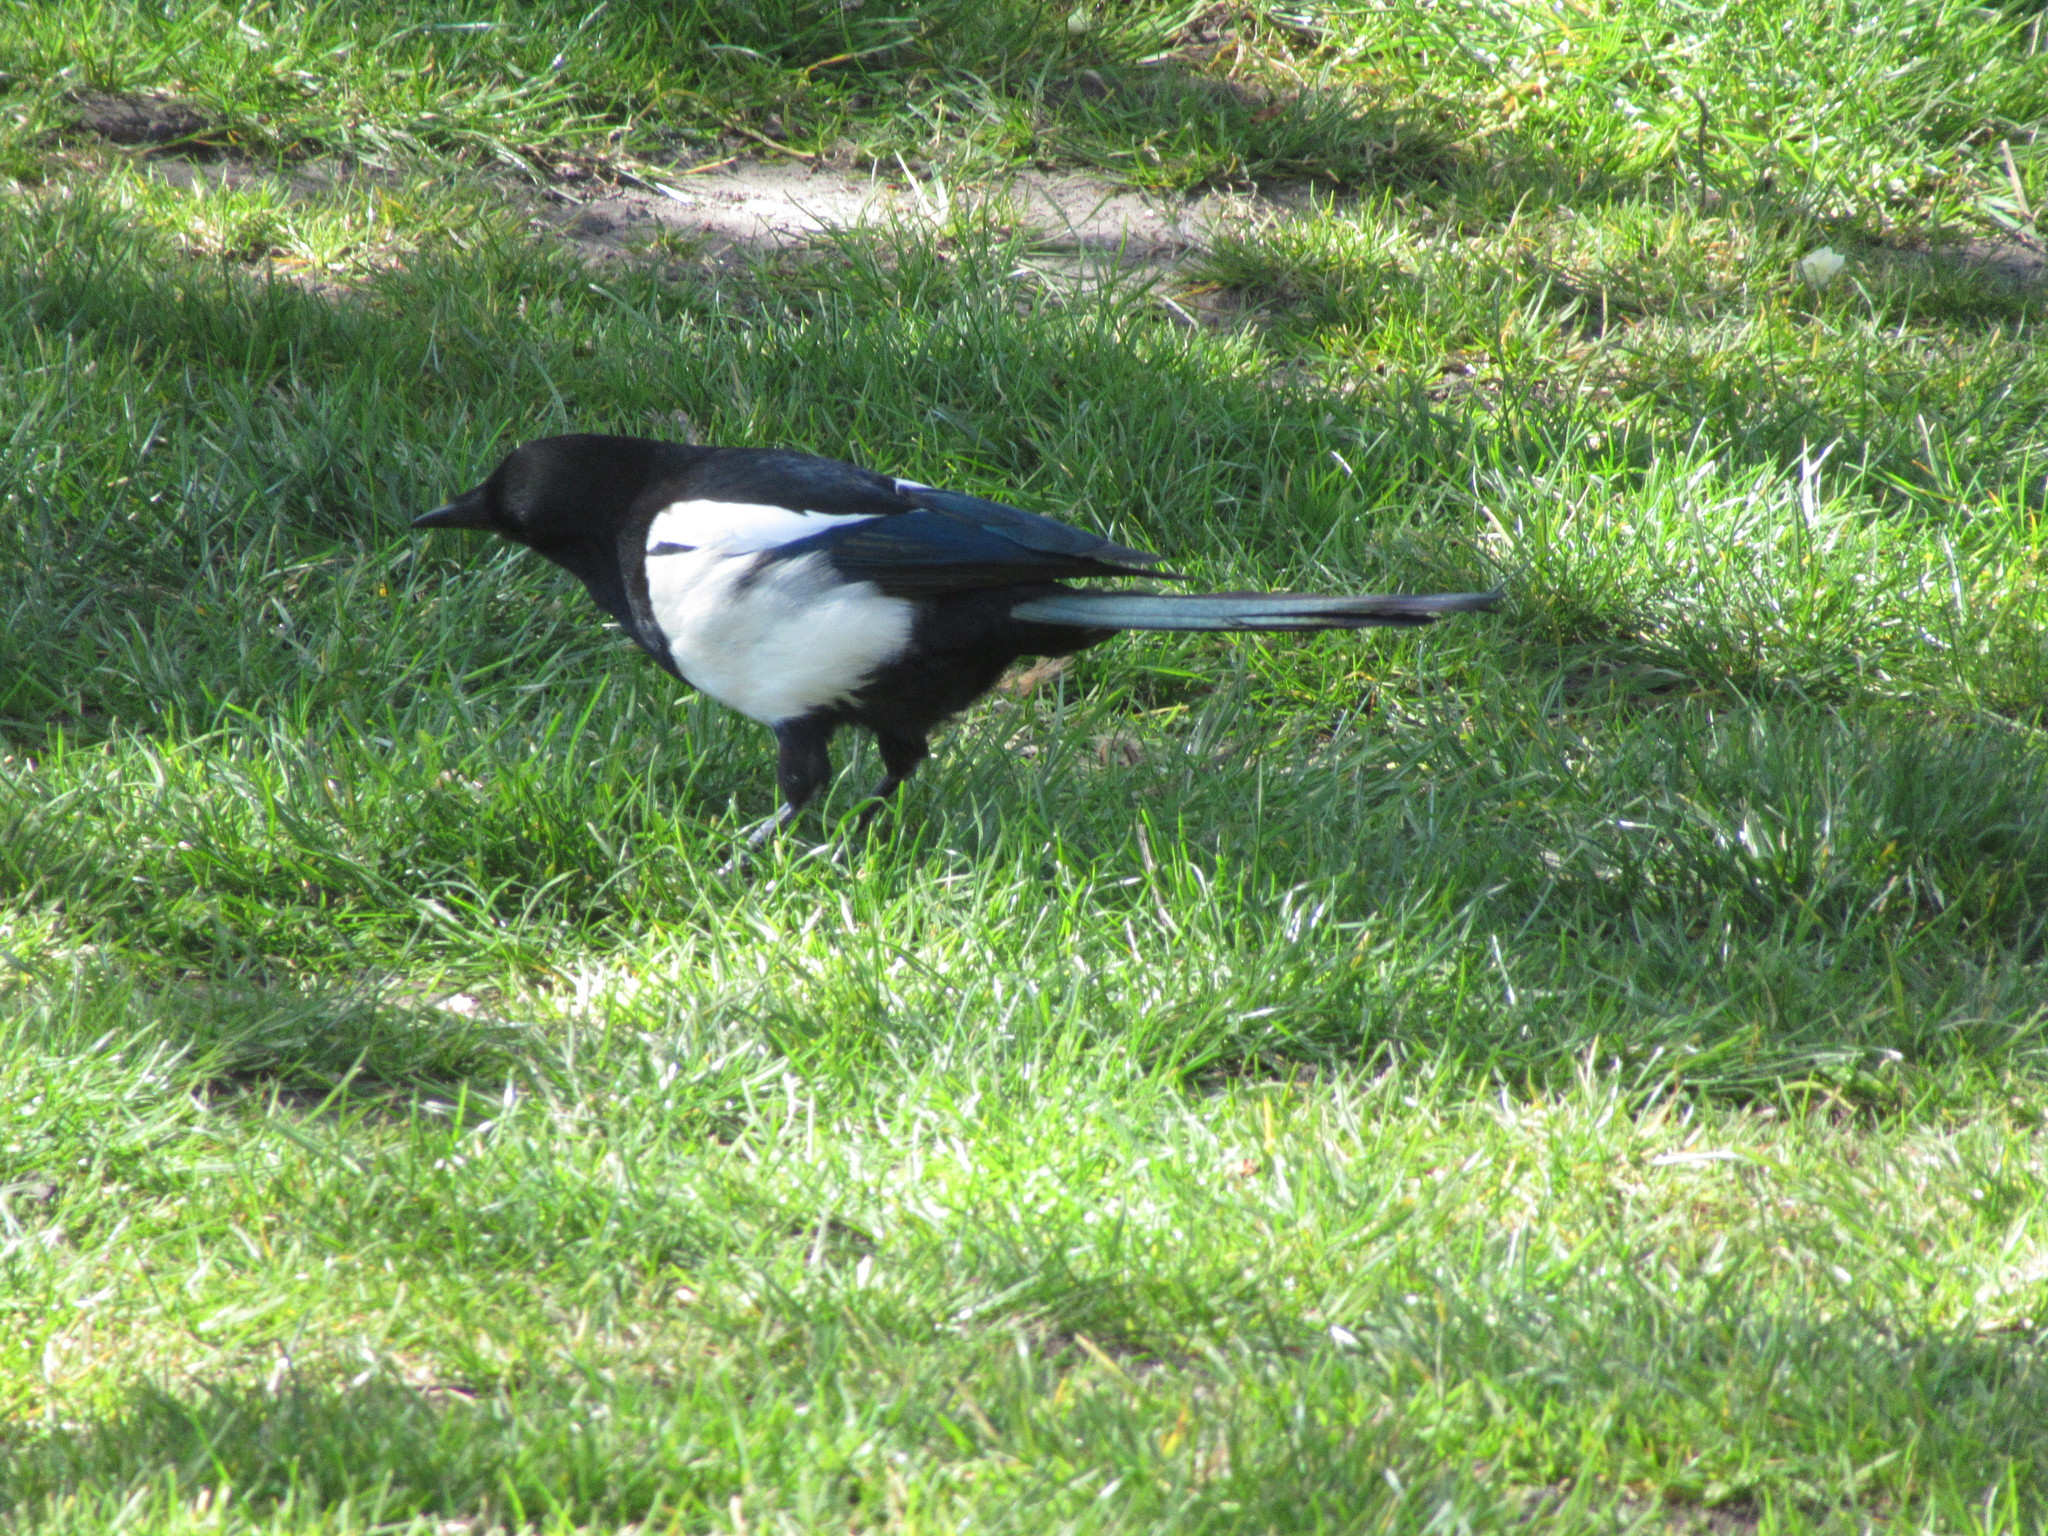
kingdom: Animalia
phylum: Chordata
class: Aves
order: Passeriformes
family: Corvidae
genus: Pica
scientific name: Pica pica
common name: Eurasian magpie
